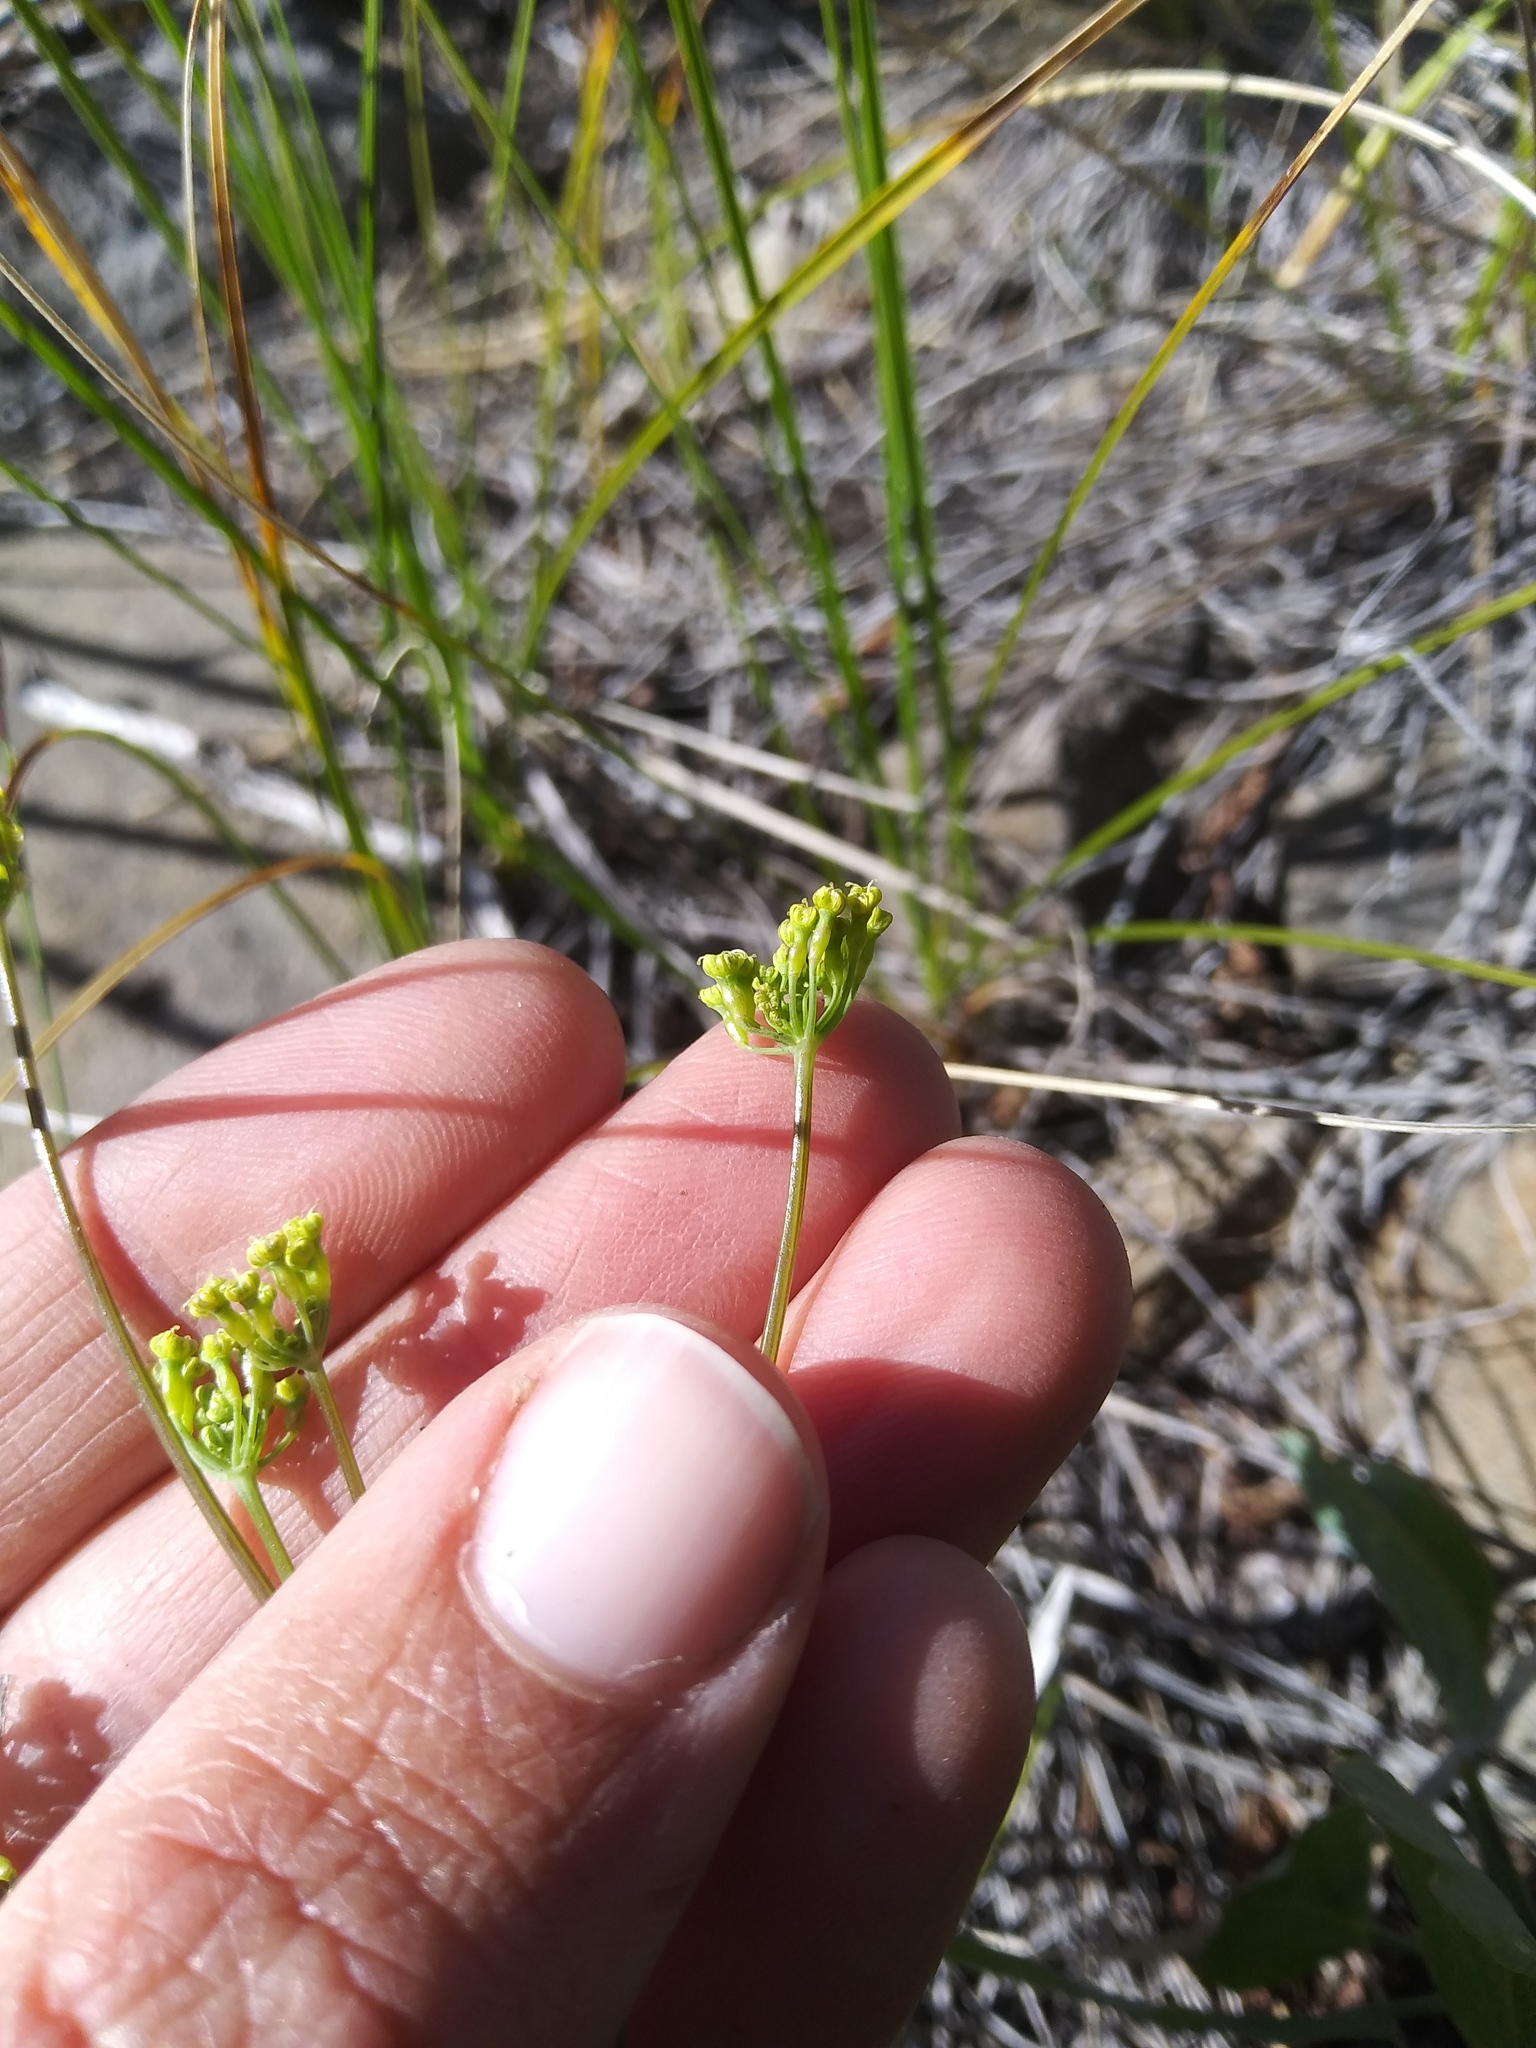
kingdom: Plantae
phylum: Tracheophyta
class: Magnoliopsida
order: Apiales
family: Apiaceae
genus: Lomatium
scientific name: Lomatium nudicaule
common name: Pestle lomatium
